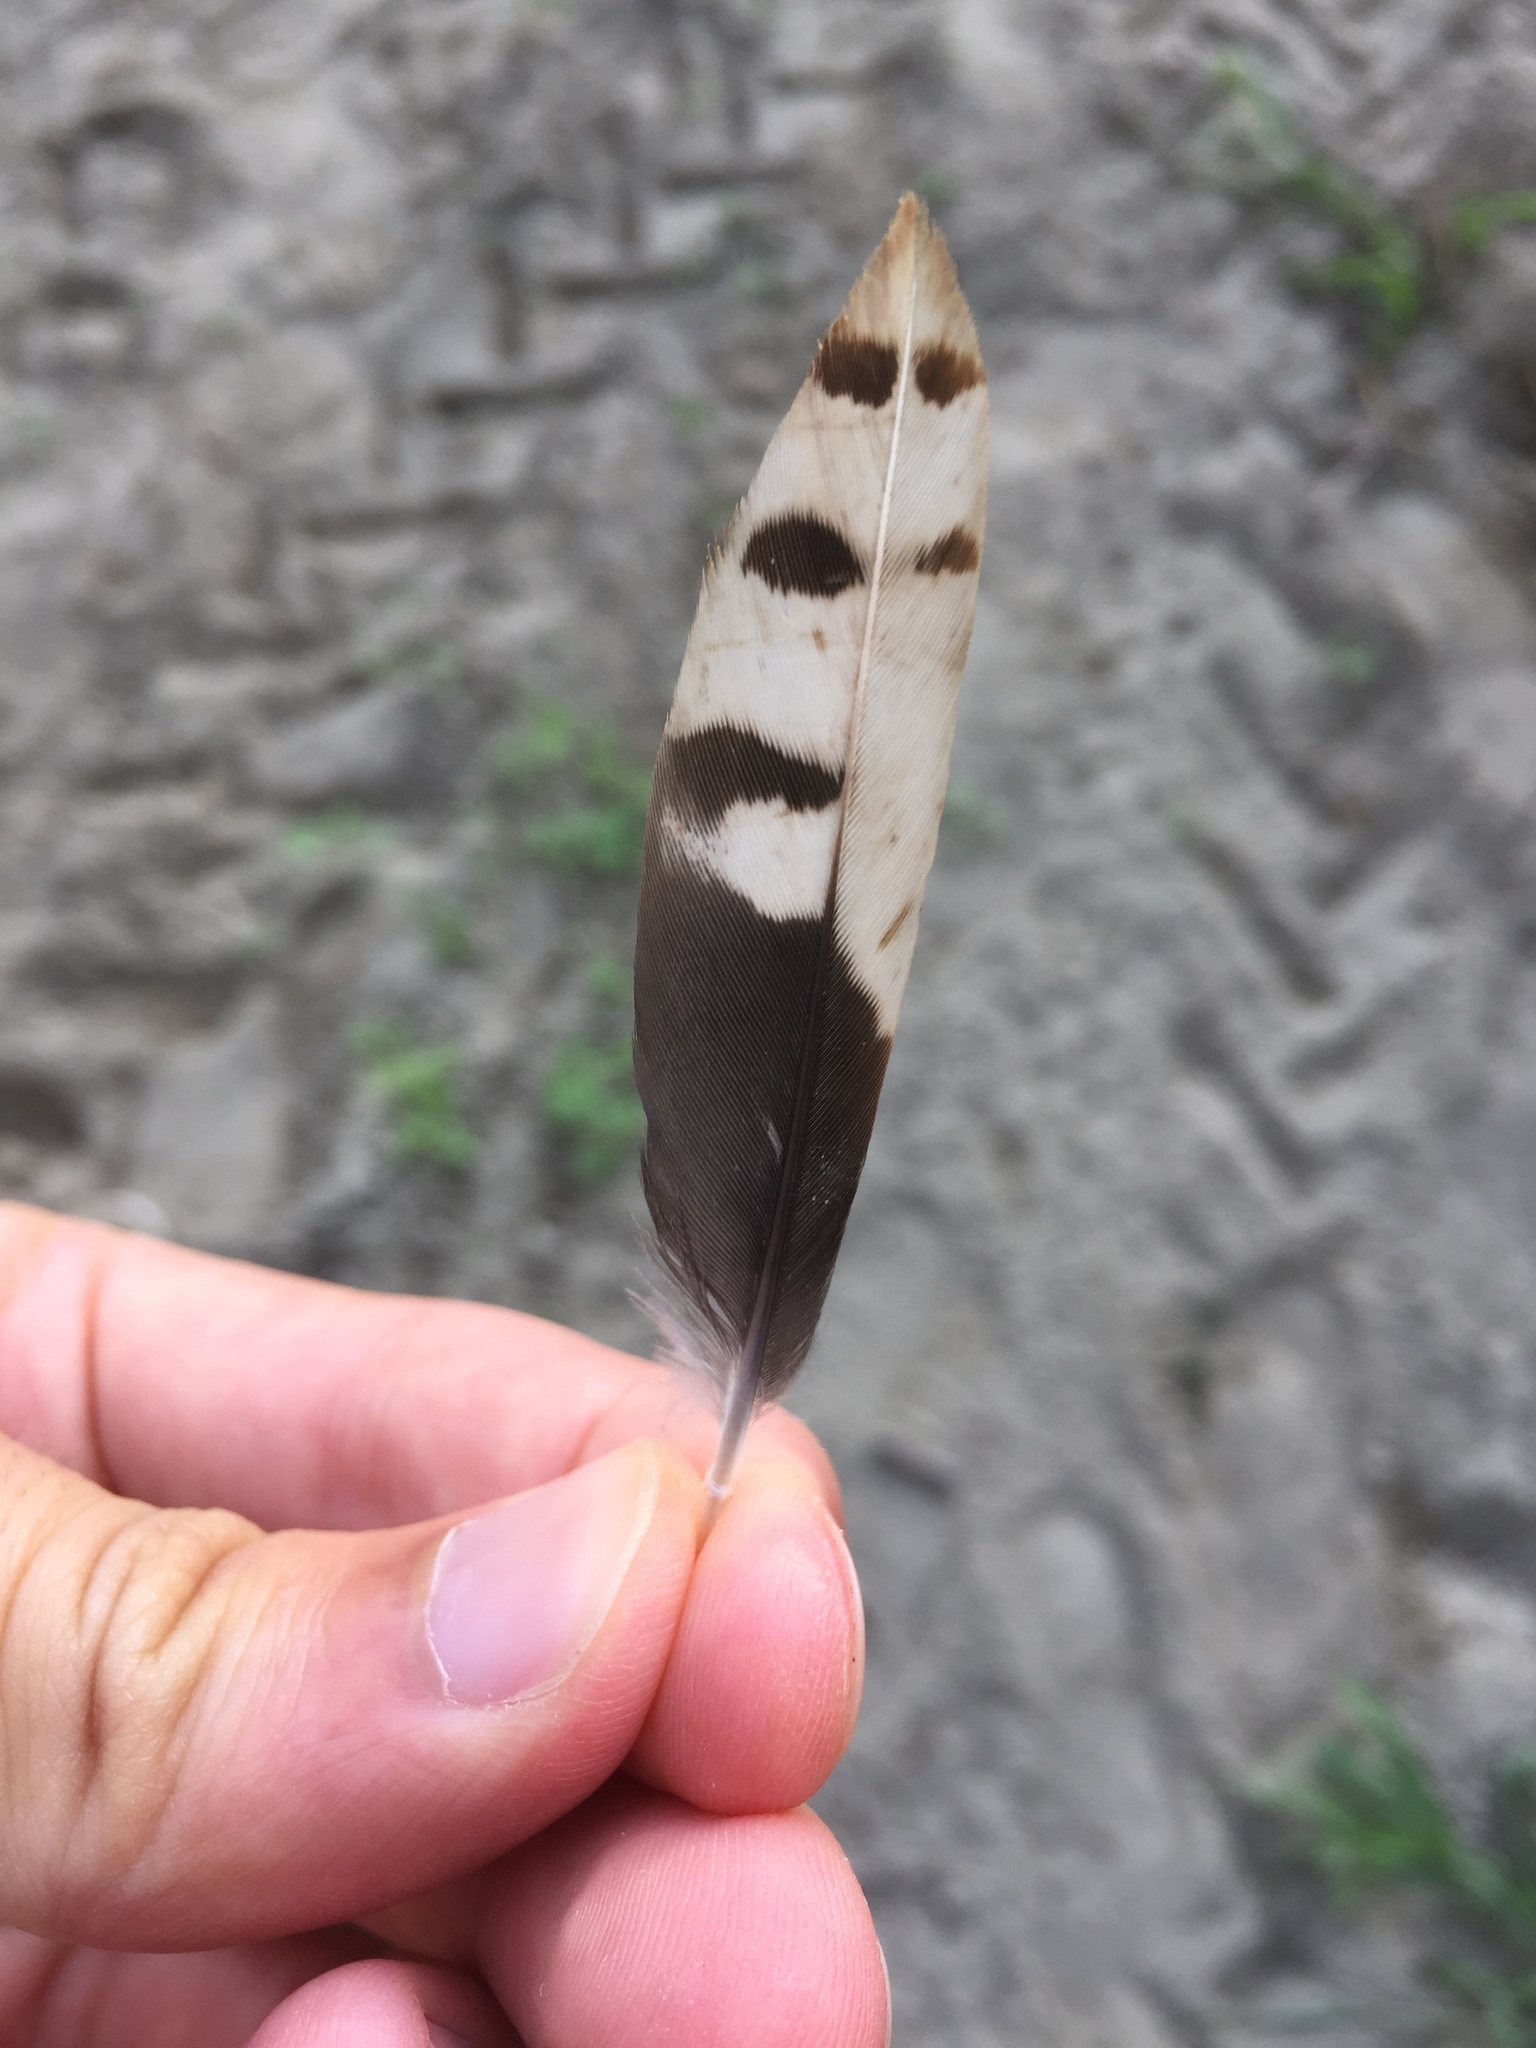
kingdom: Animalia
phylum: Chordata
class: Aves
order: Piciformes
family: Picidae
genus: Dendrocopos
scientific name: Dendrocopos major
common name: Great spotted woodpecker
